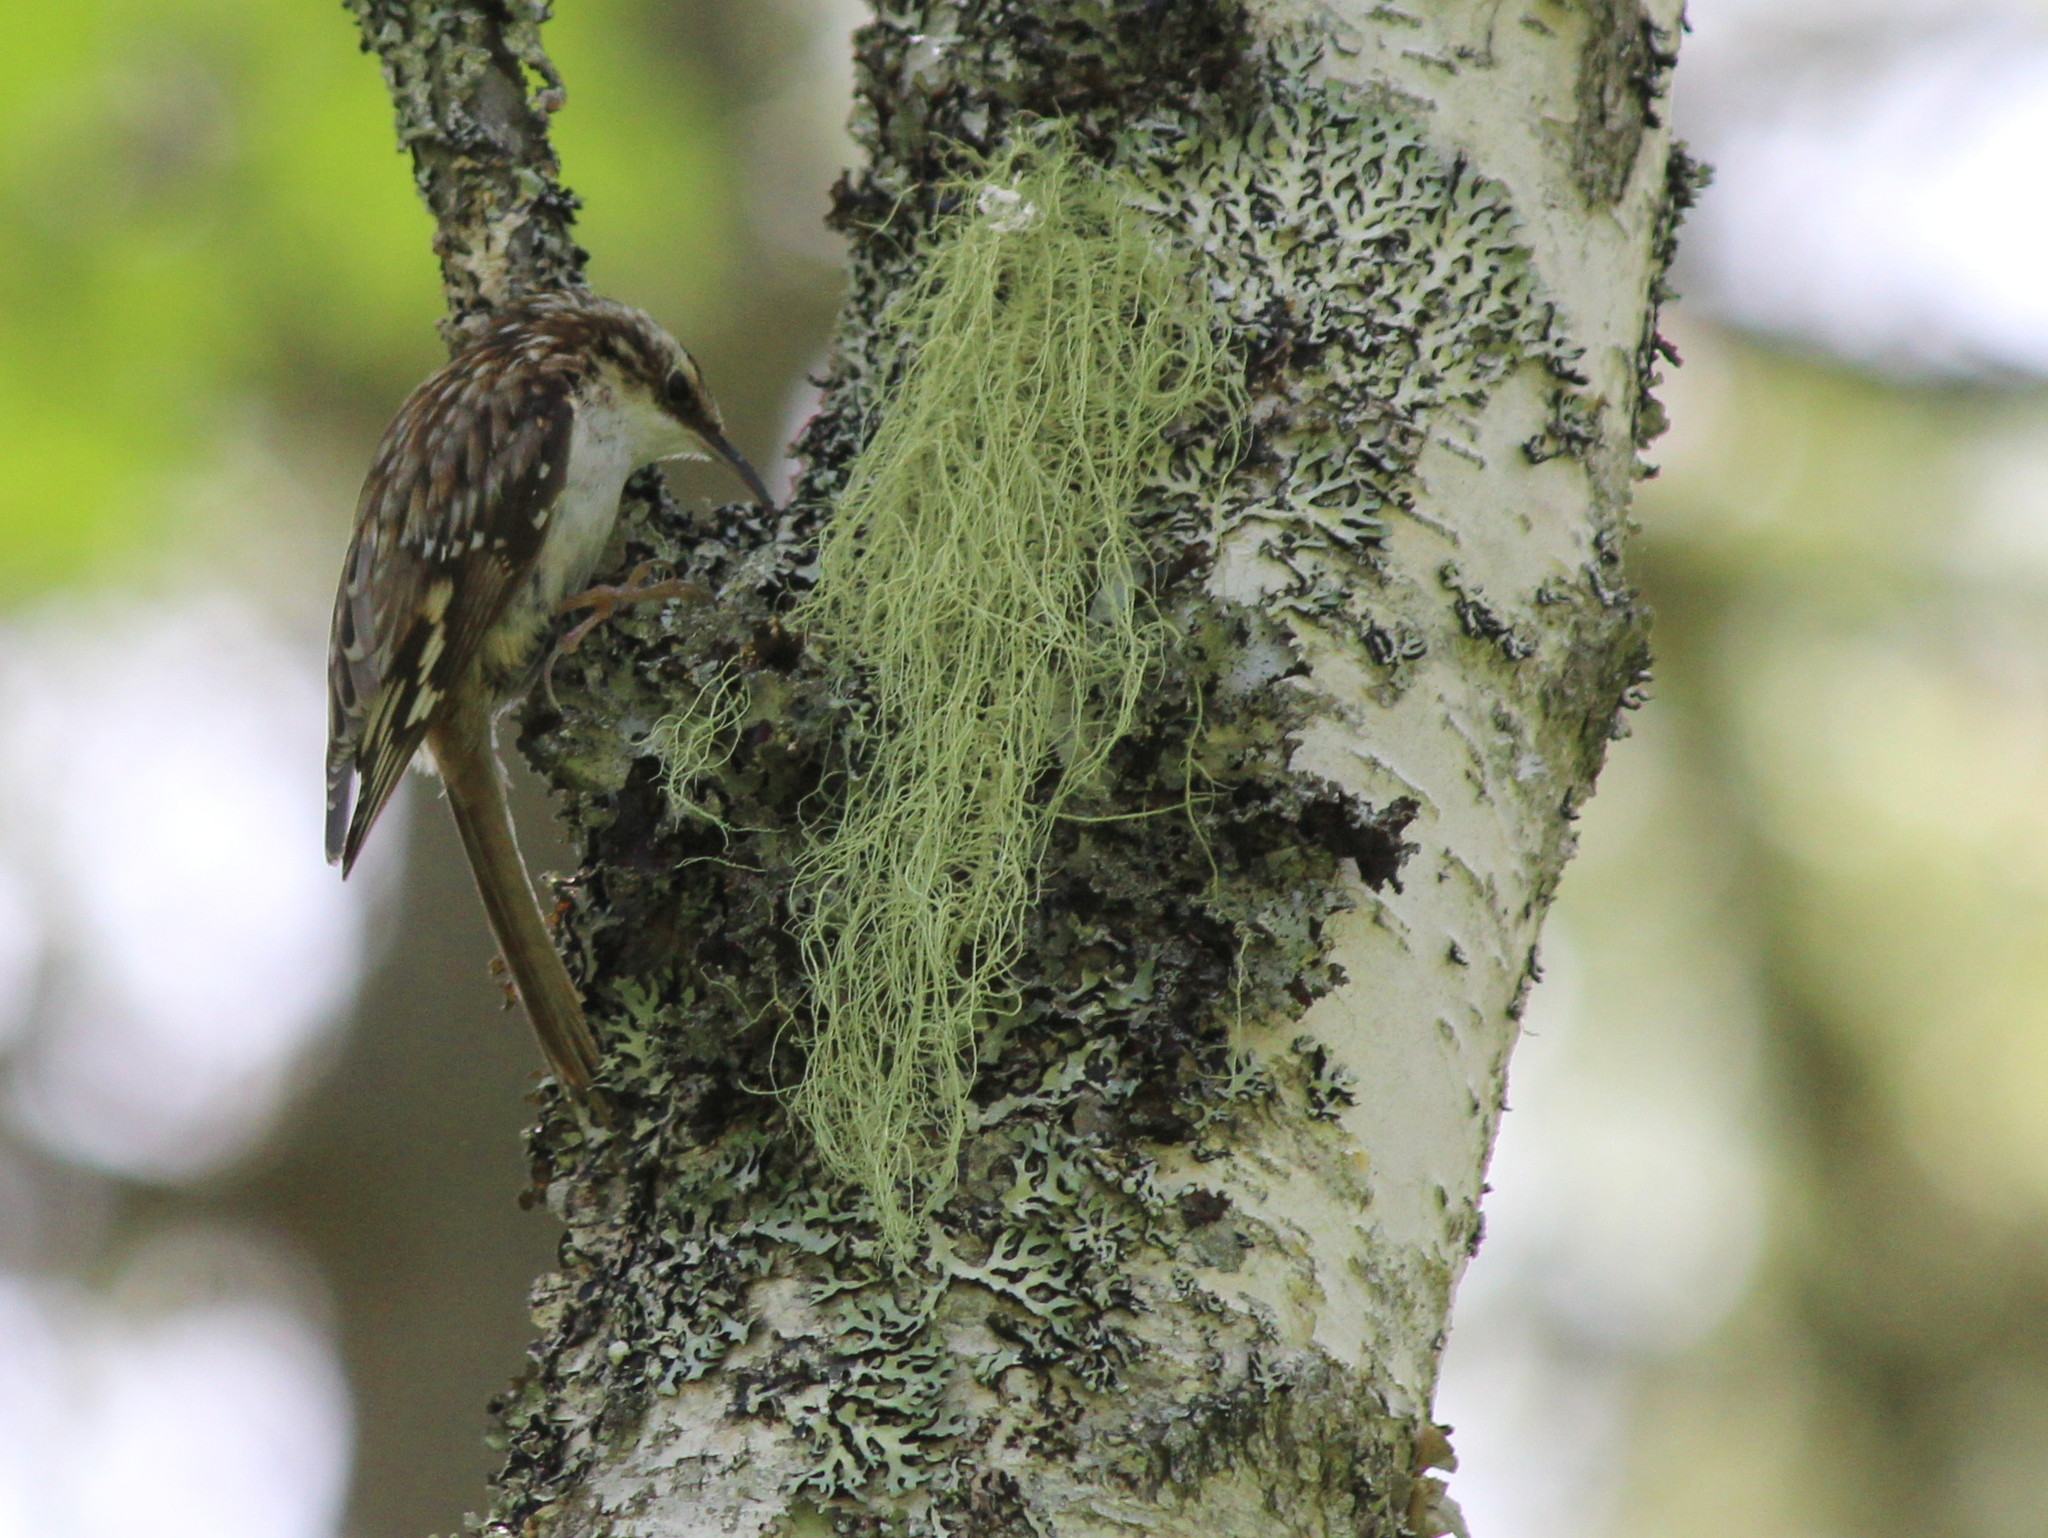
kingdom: Animalia
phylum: Chordata
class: Aves
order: Passeriformes
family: Certhiidae
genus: Certhia
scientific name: Certhia americana
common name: Brown creeper
